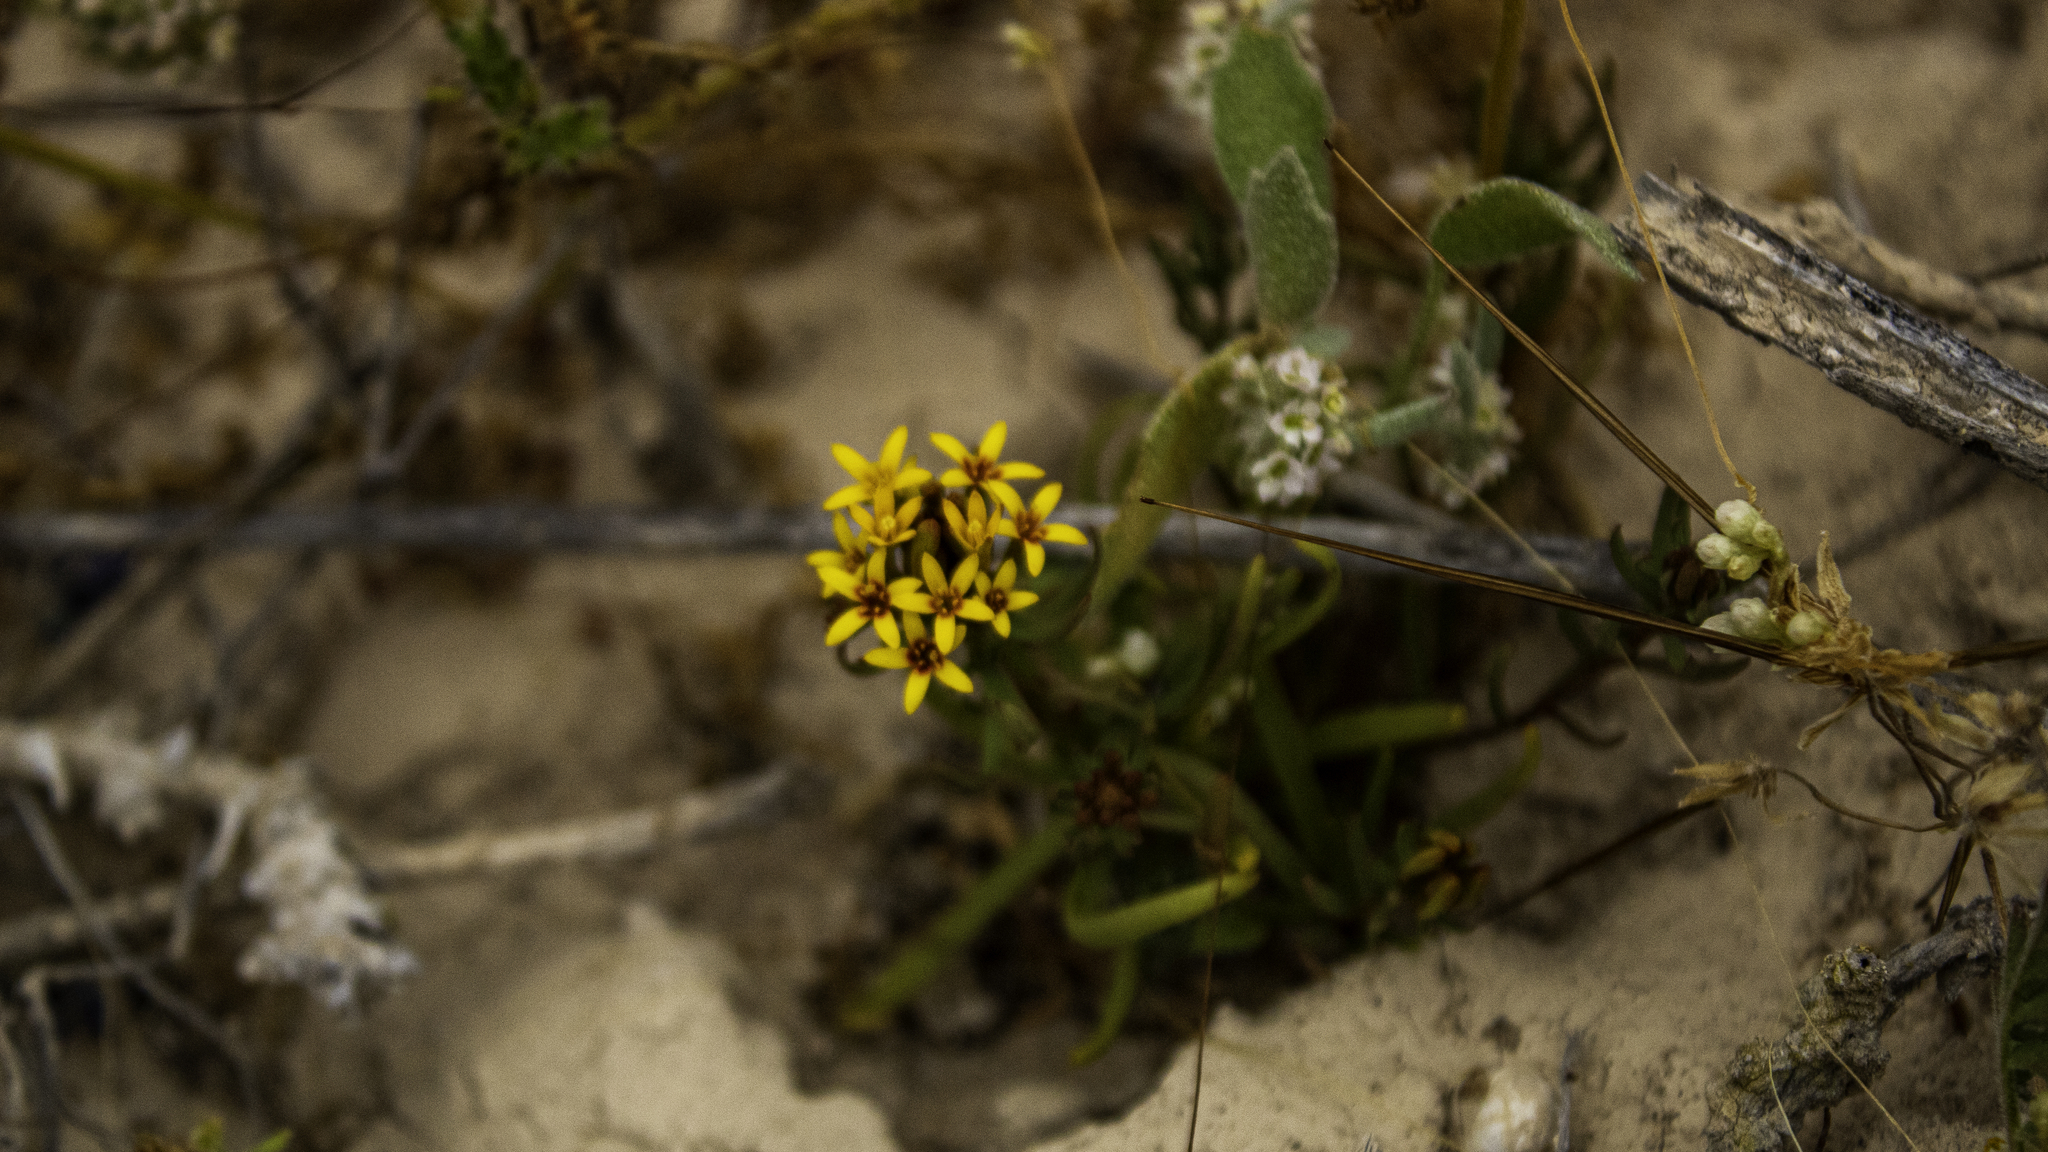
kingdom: Plantae
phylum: Tracheophyta
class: Magnoliopsida
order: Santalales
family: Schoepfiaceae
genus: Quinchamalium
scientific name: Quinchamalium chilense
